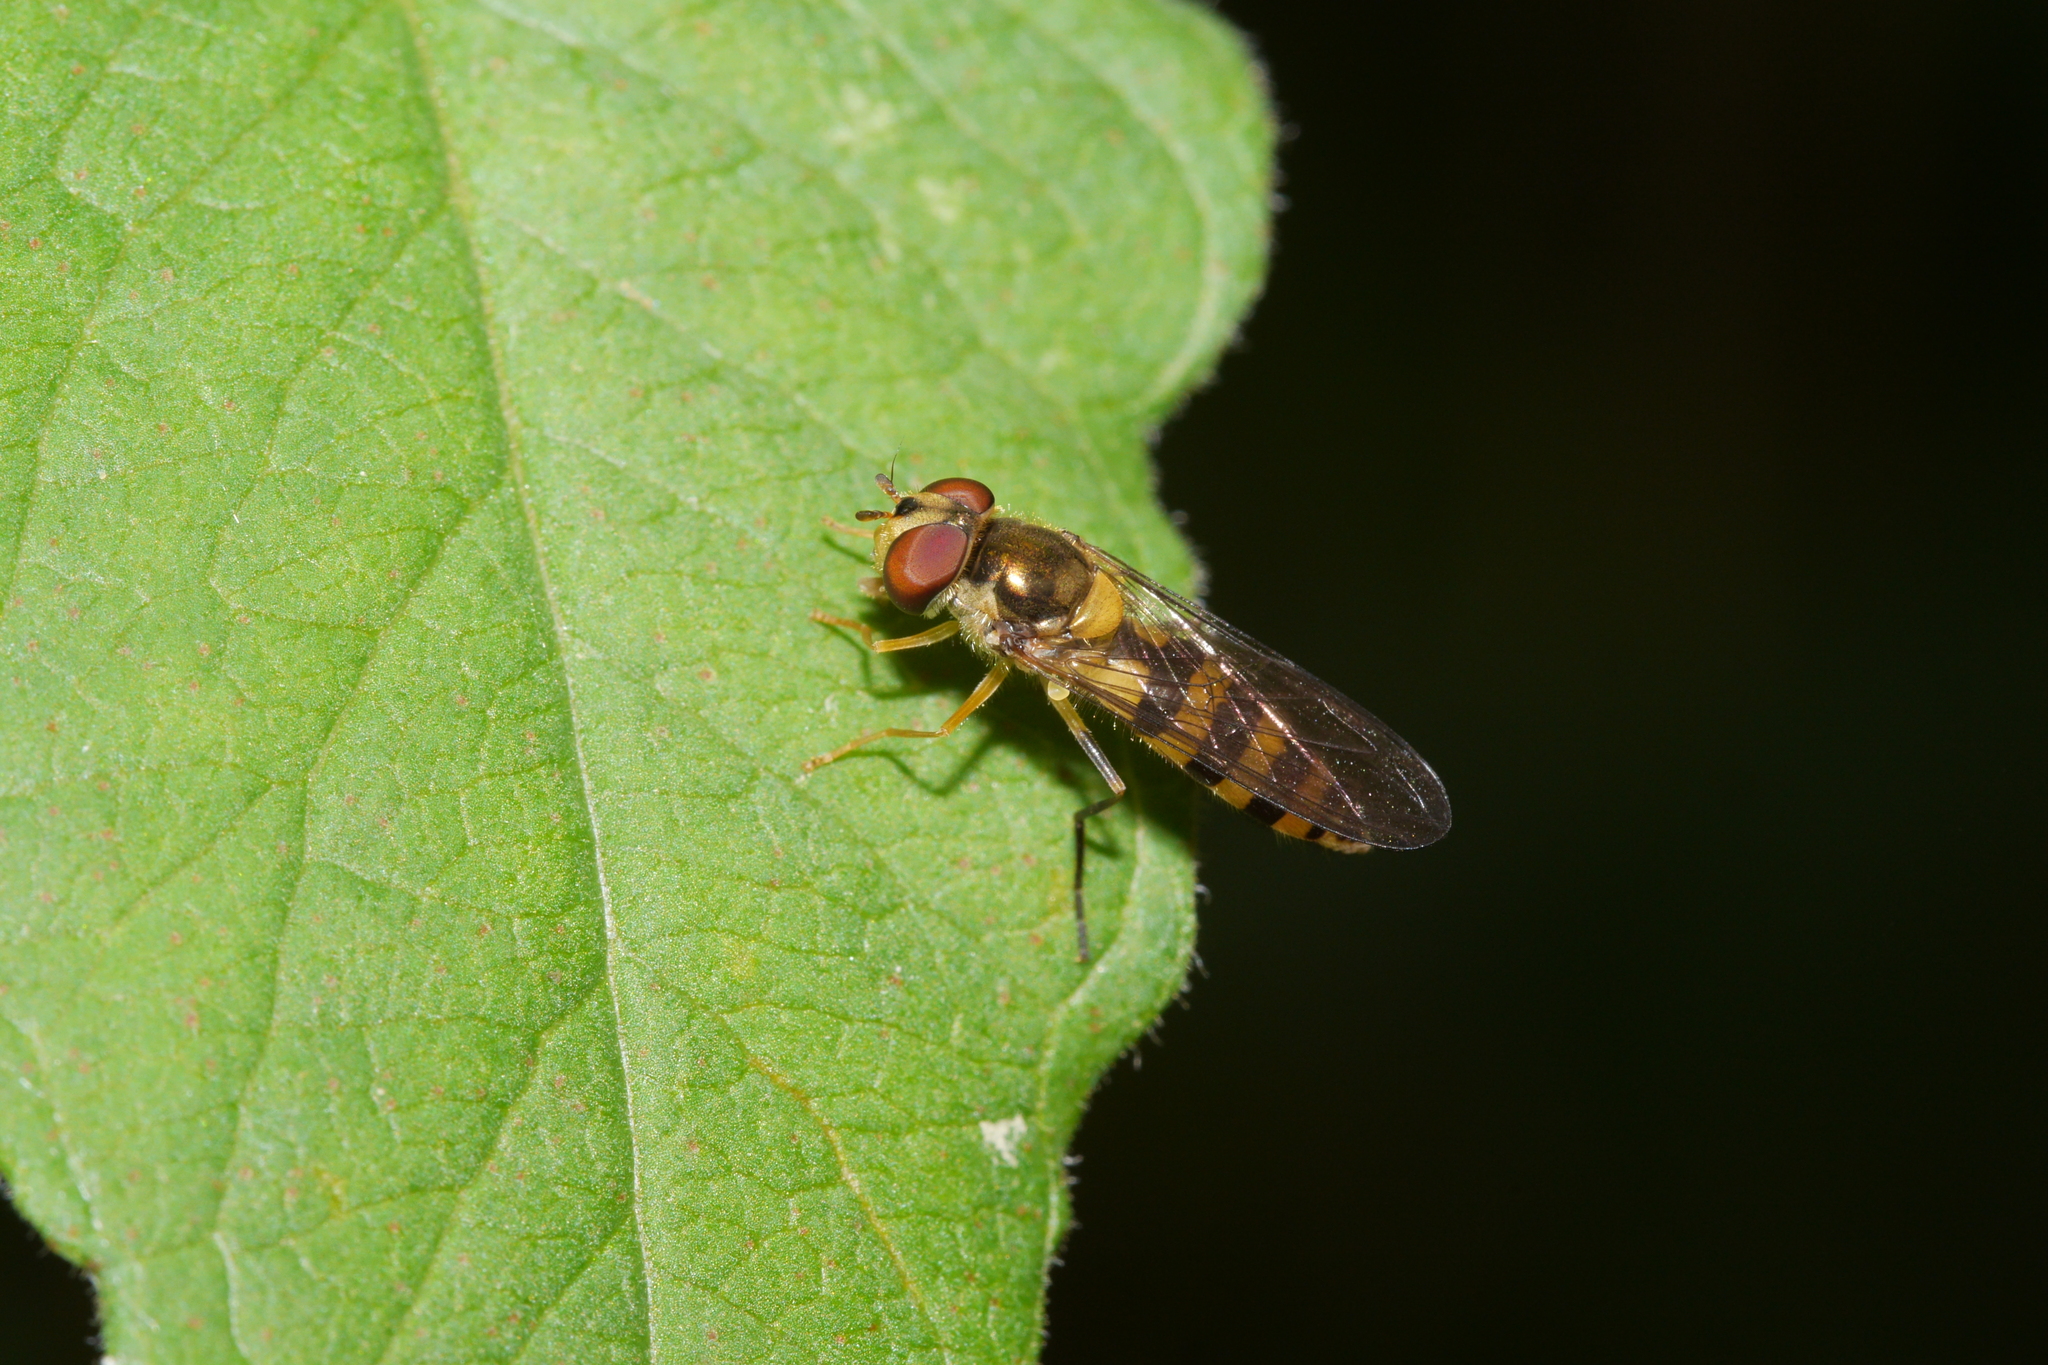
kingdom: Animalia
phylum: Arthropoda
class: Insecta
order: Diptera
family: Syrphidae
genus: Meliscaeva
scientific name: Meliscaeva cinctella
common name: American thintail fly
